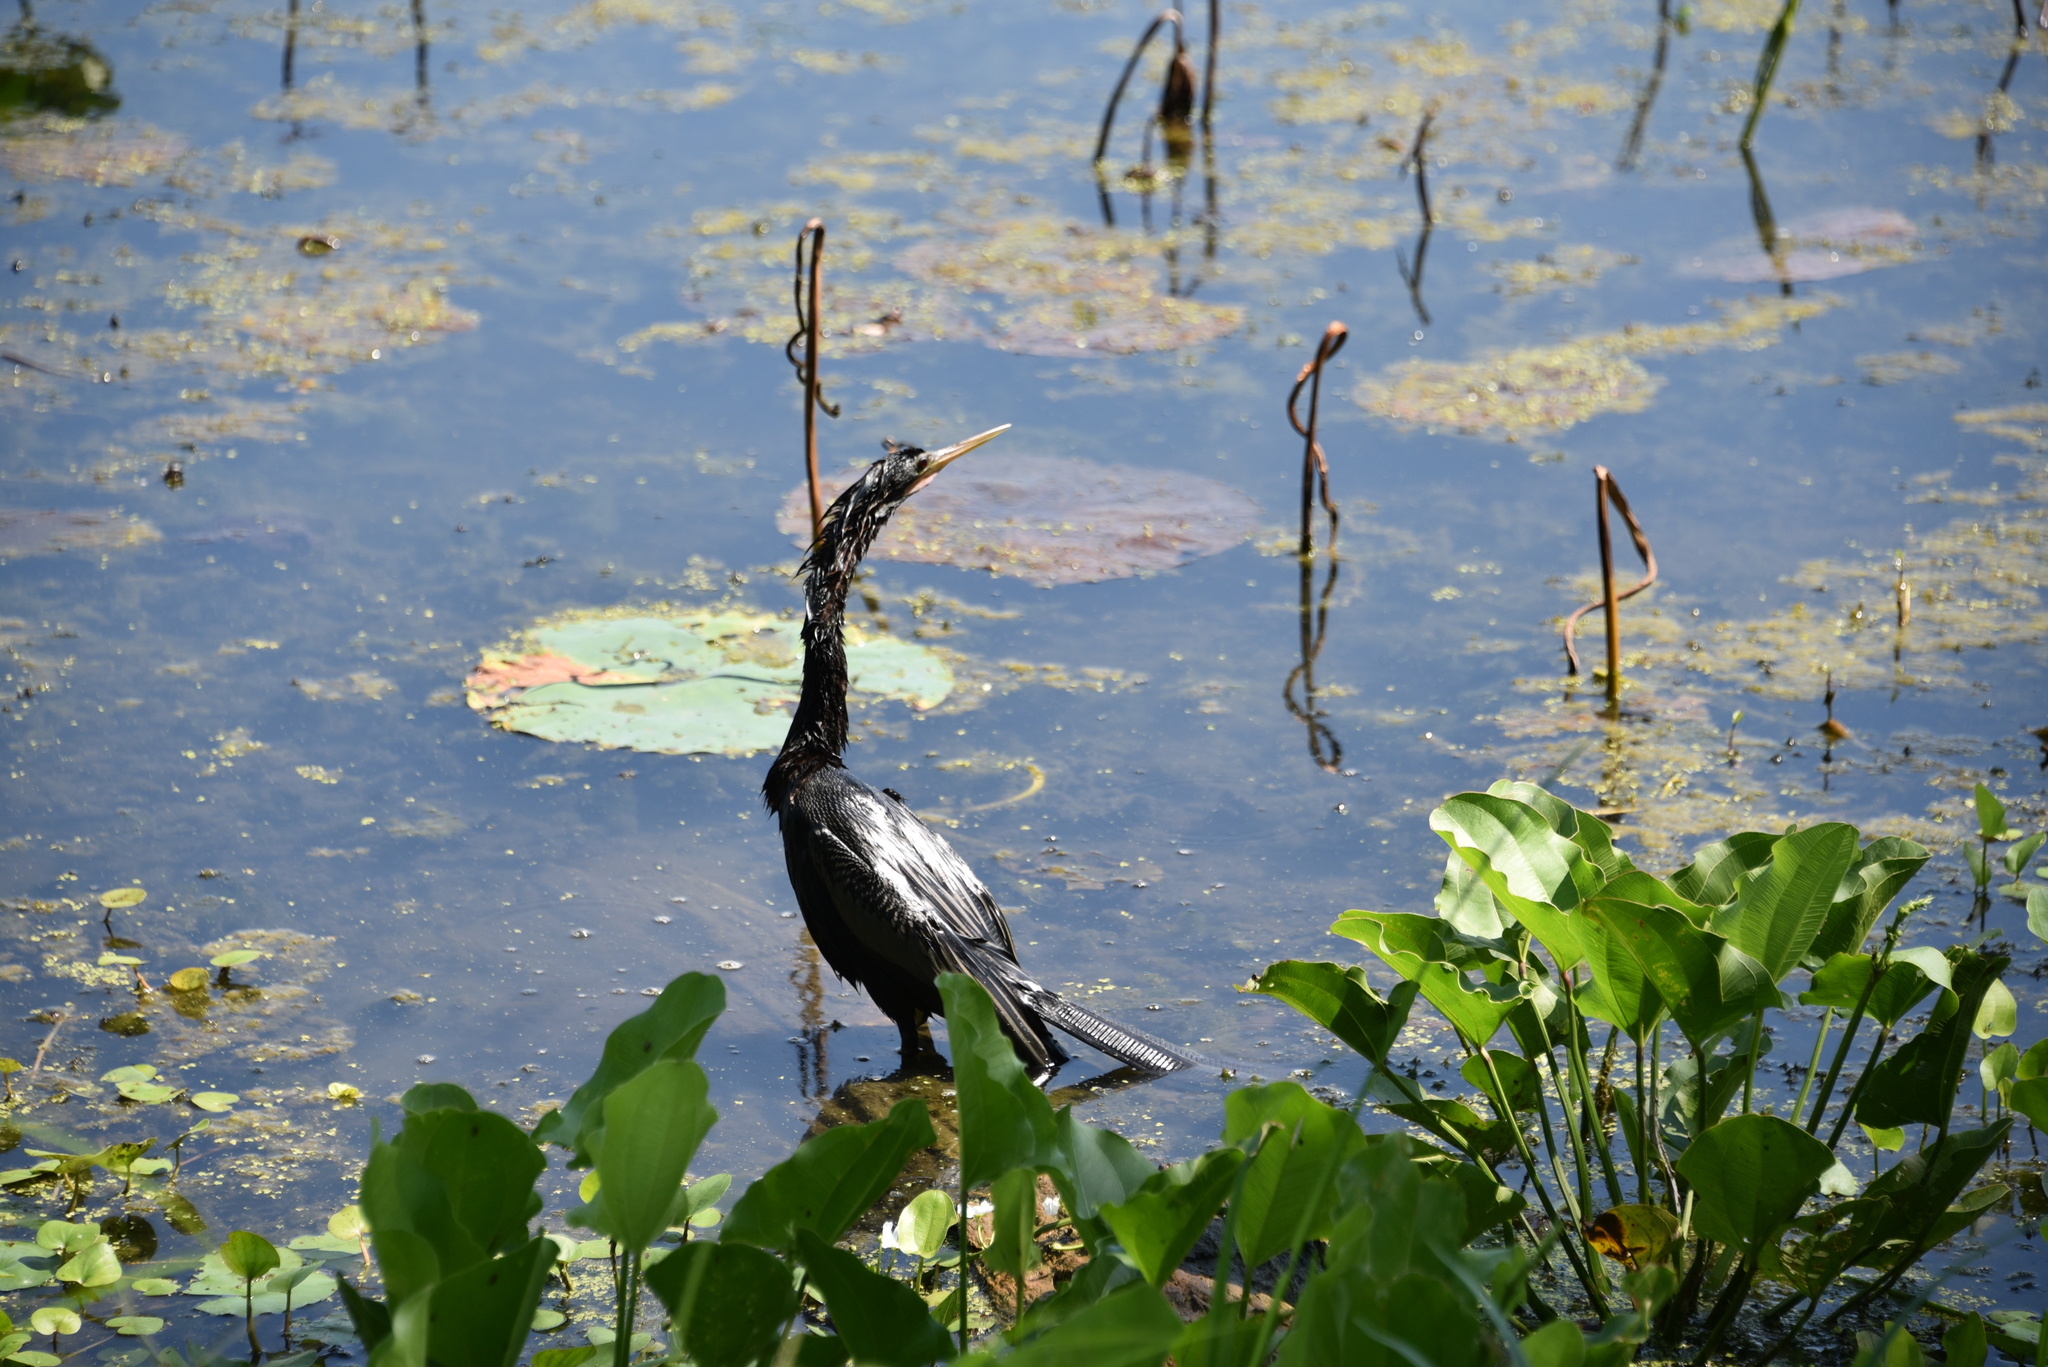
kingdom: Animalia
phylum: Chordata
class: Aves
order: Suliformes
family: Anhingidae
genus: Anhinga
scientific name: Anhinga anhinga
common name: Anhinga
